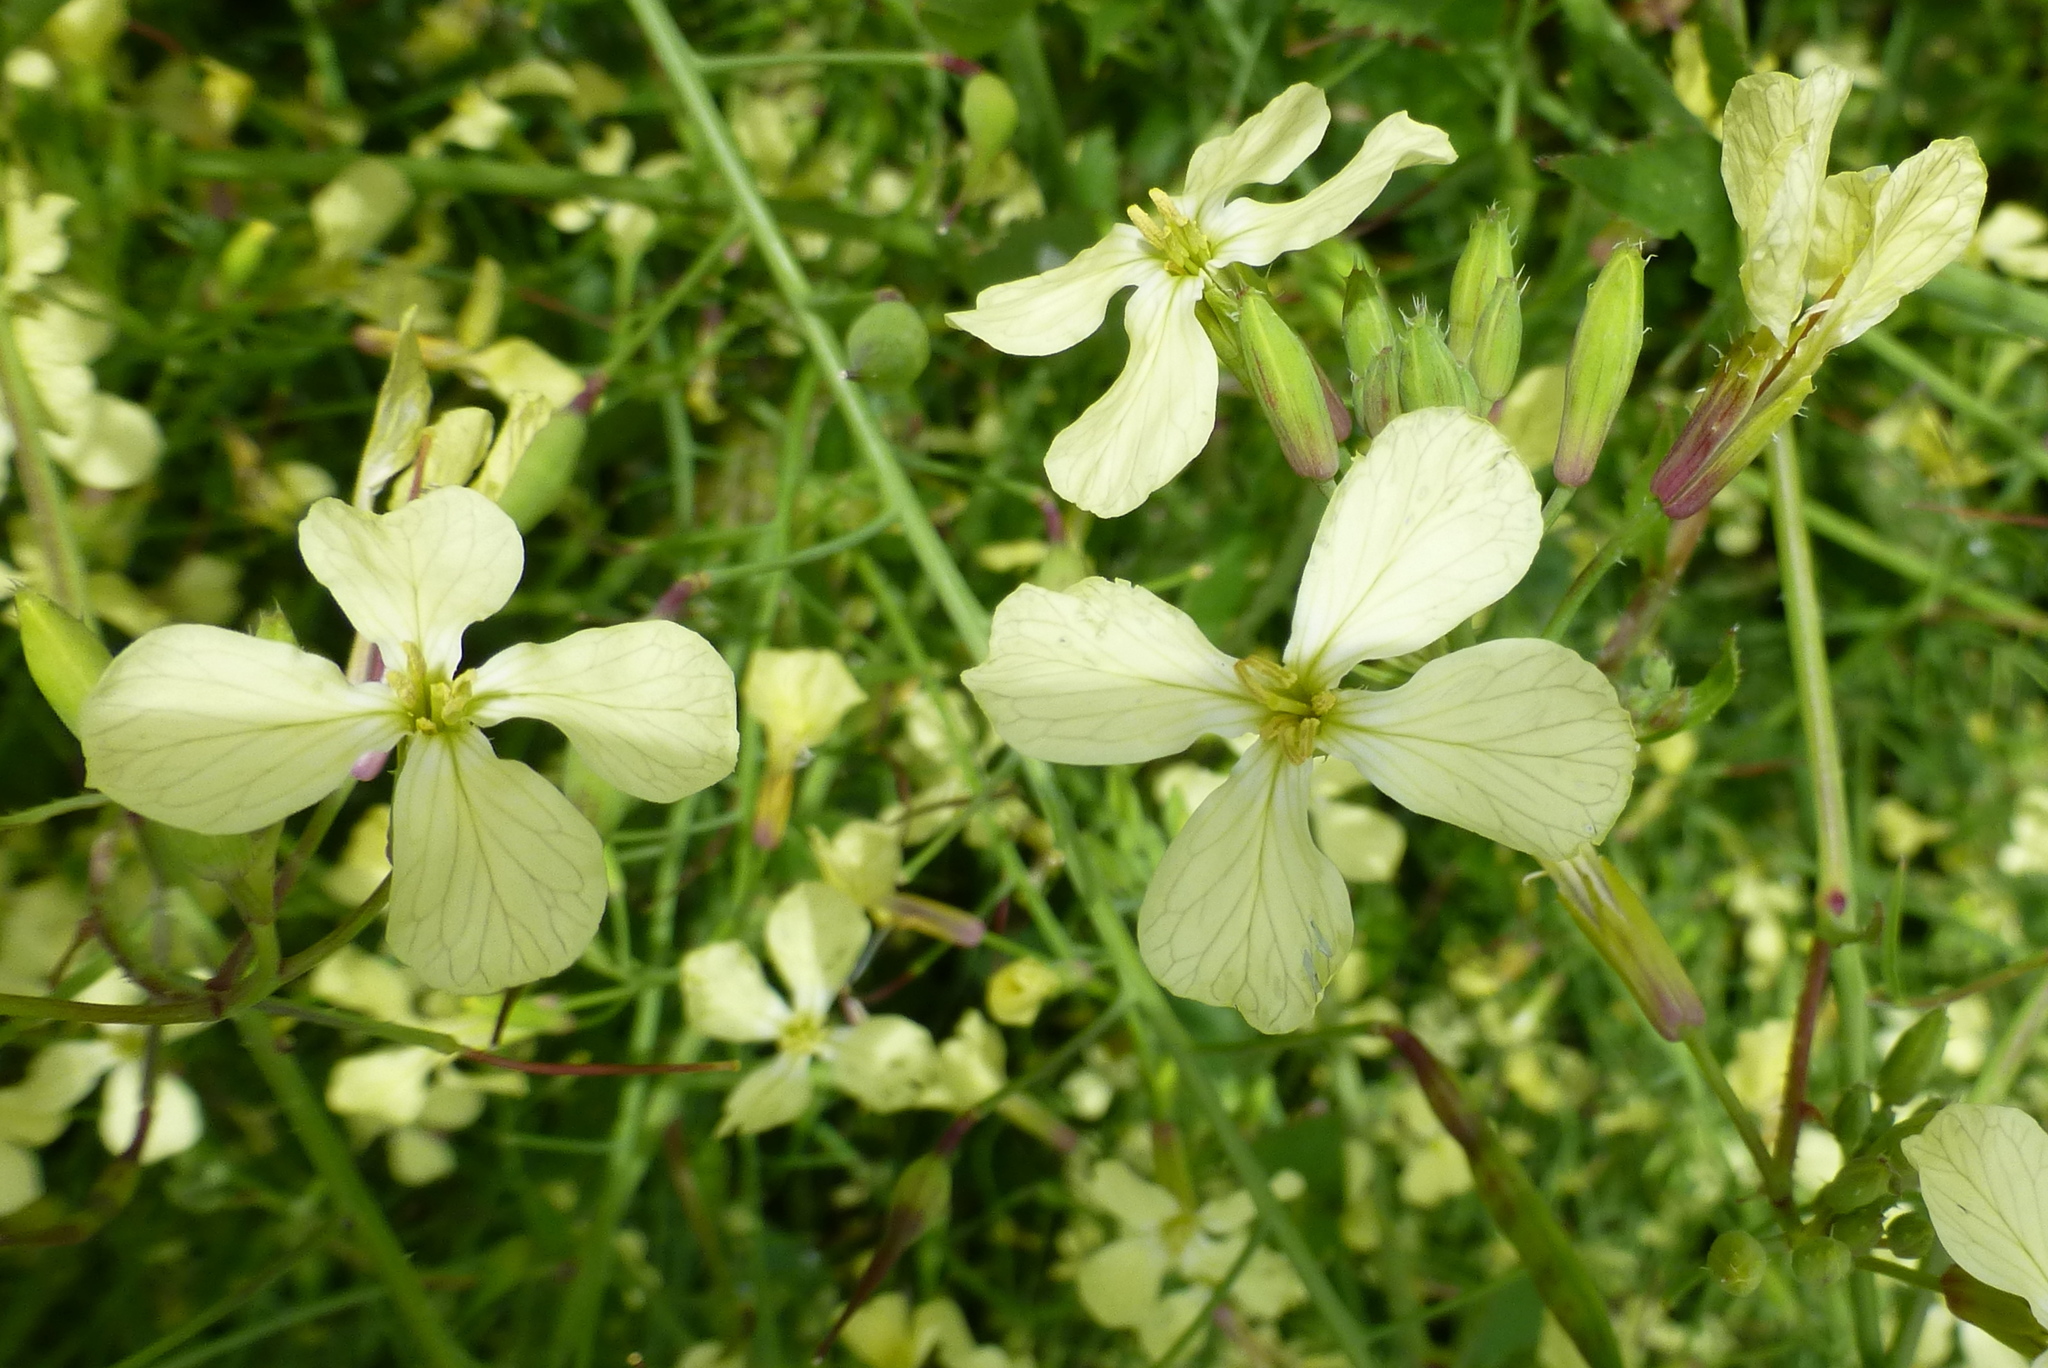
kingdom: Plantae
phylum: Tracheophyta
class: Magnoliopsida
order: Brassicales
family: Brassicaceae
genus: Raphanus
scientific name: Raphanus raphanistrum
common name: Wild radish
